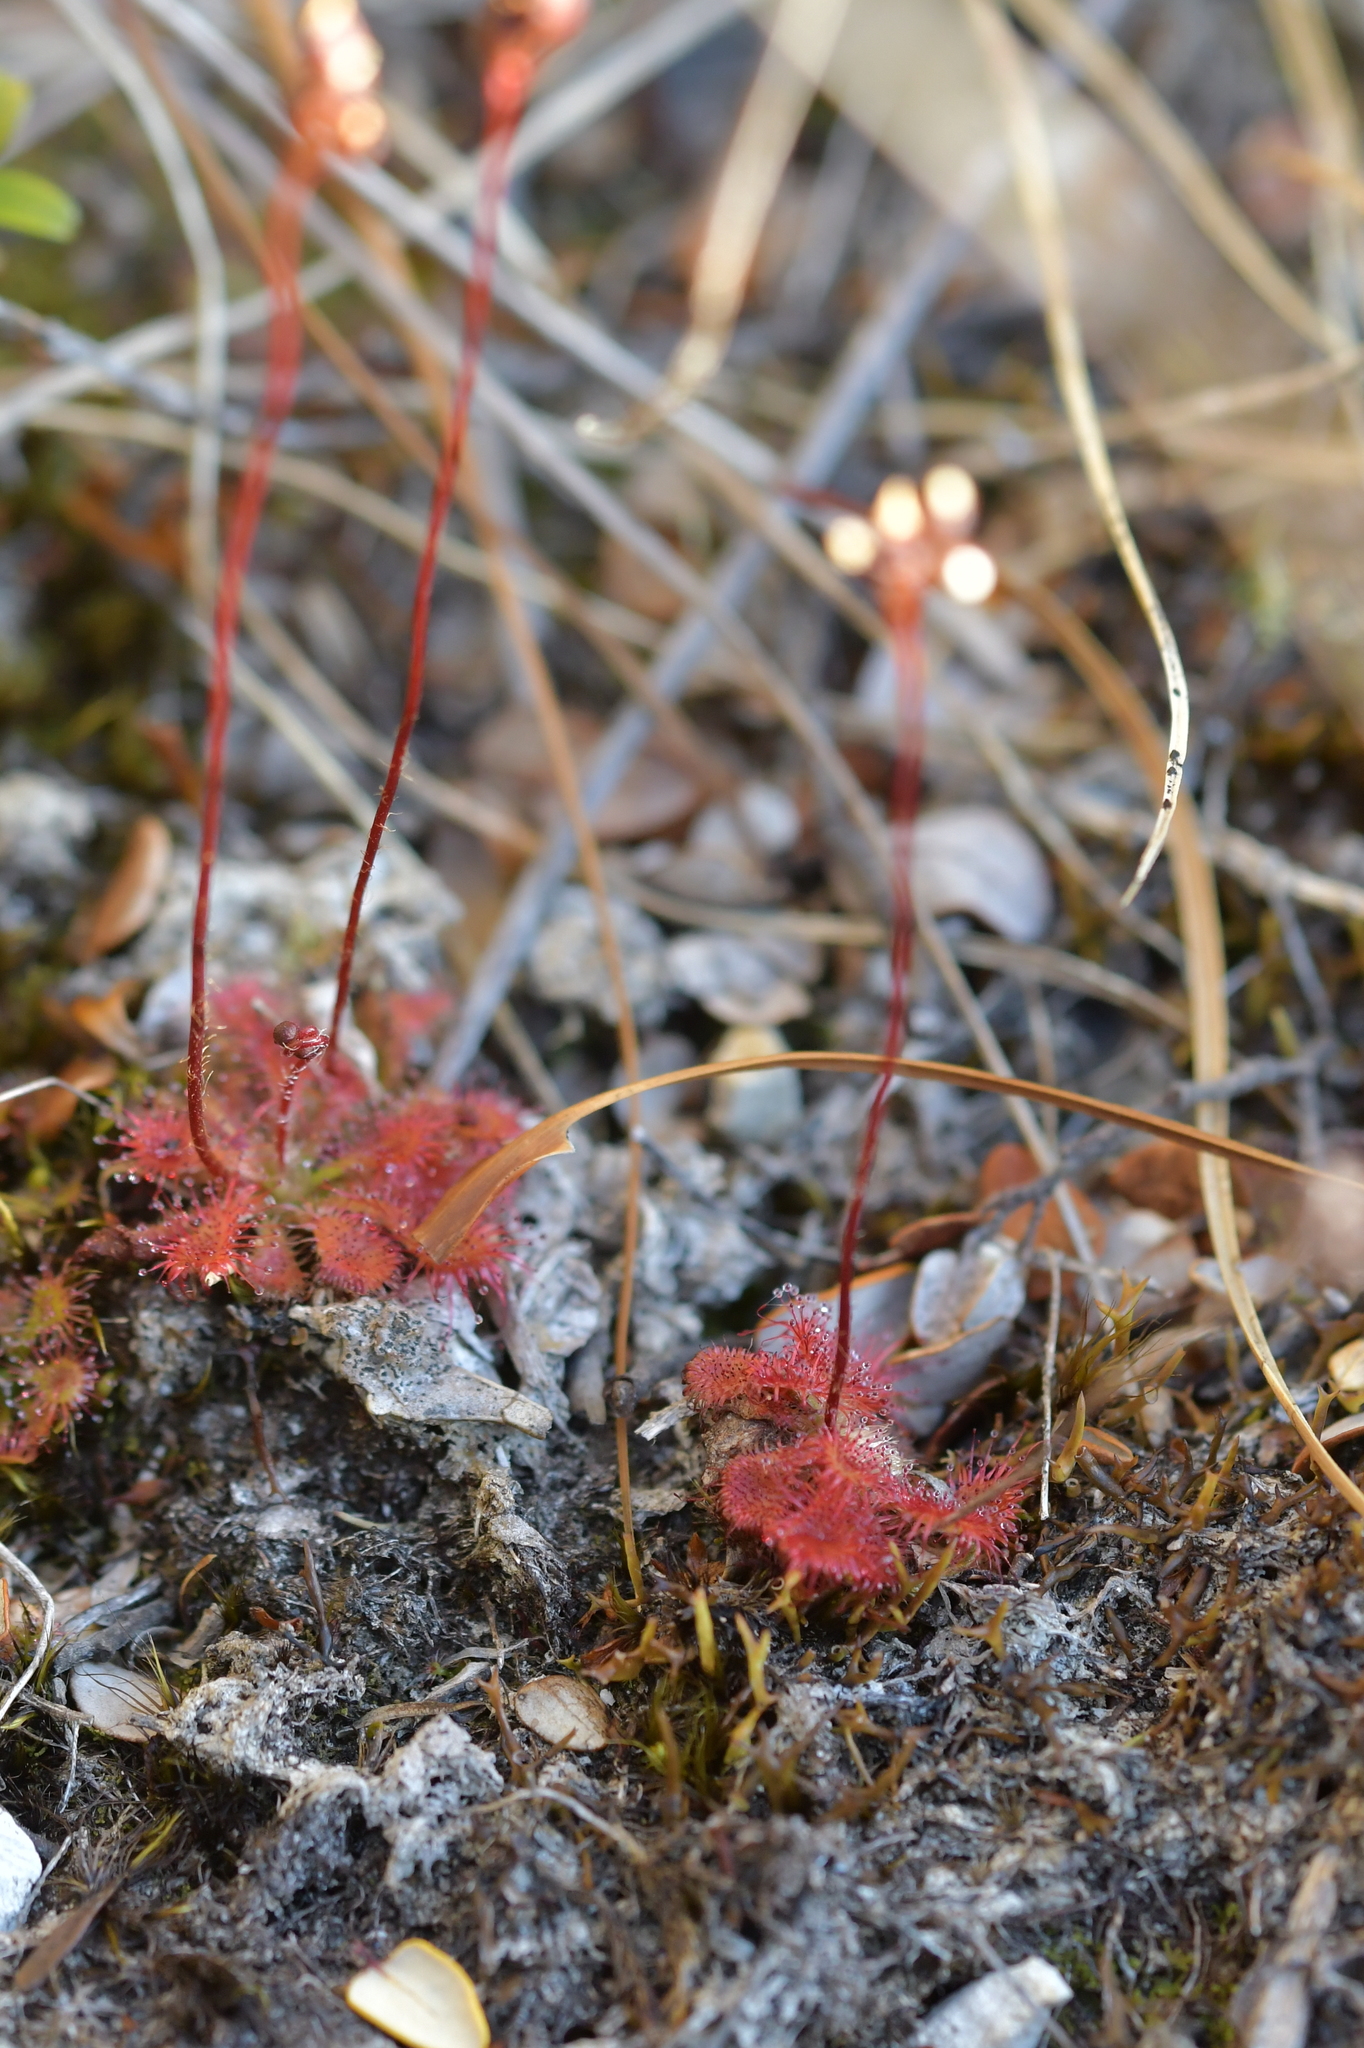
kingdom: Plantae
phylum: Tracheophyta
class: Magnoliopsida
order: Caryophyllales
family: Droseraceae
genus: Drosera
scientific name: Drosera spatulata
